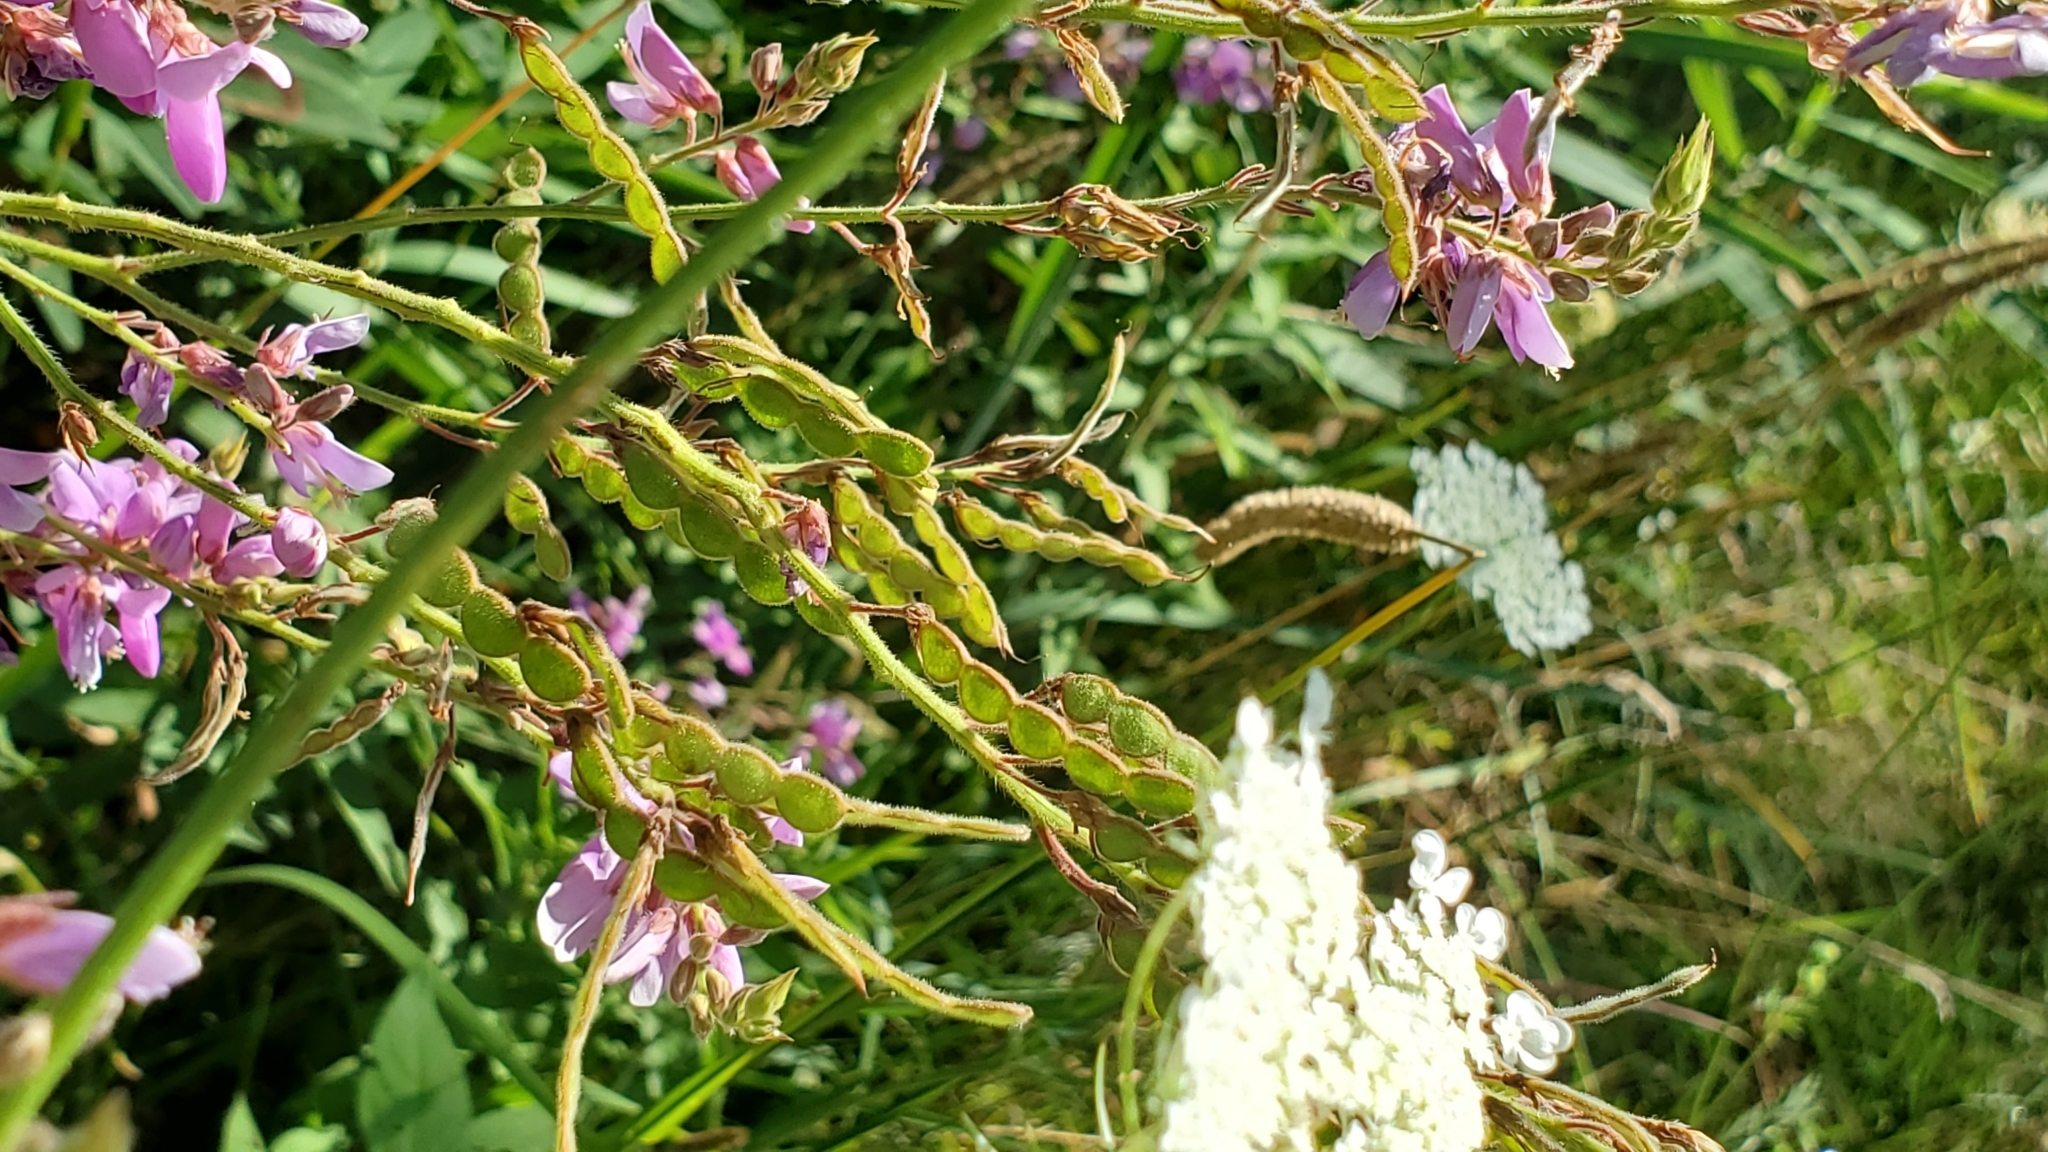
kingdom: Plantae
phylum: Tracheophyta
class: Magnoliopsida
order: Fabales
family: Fabaceae
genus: Desmodium
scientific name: Desmodium canadense
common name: Canada tick-trefoil
